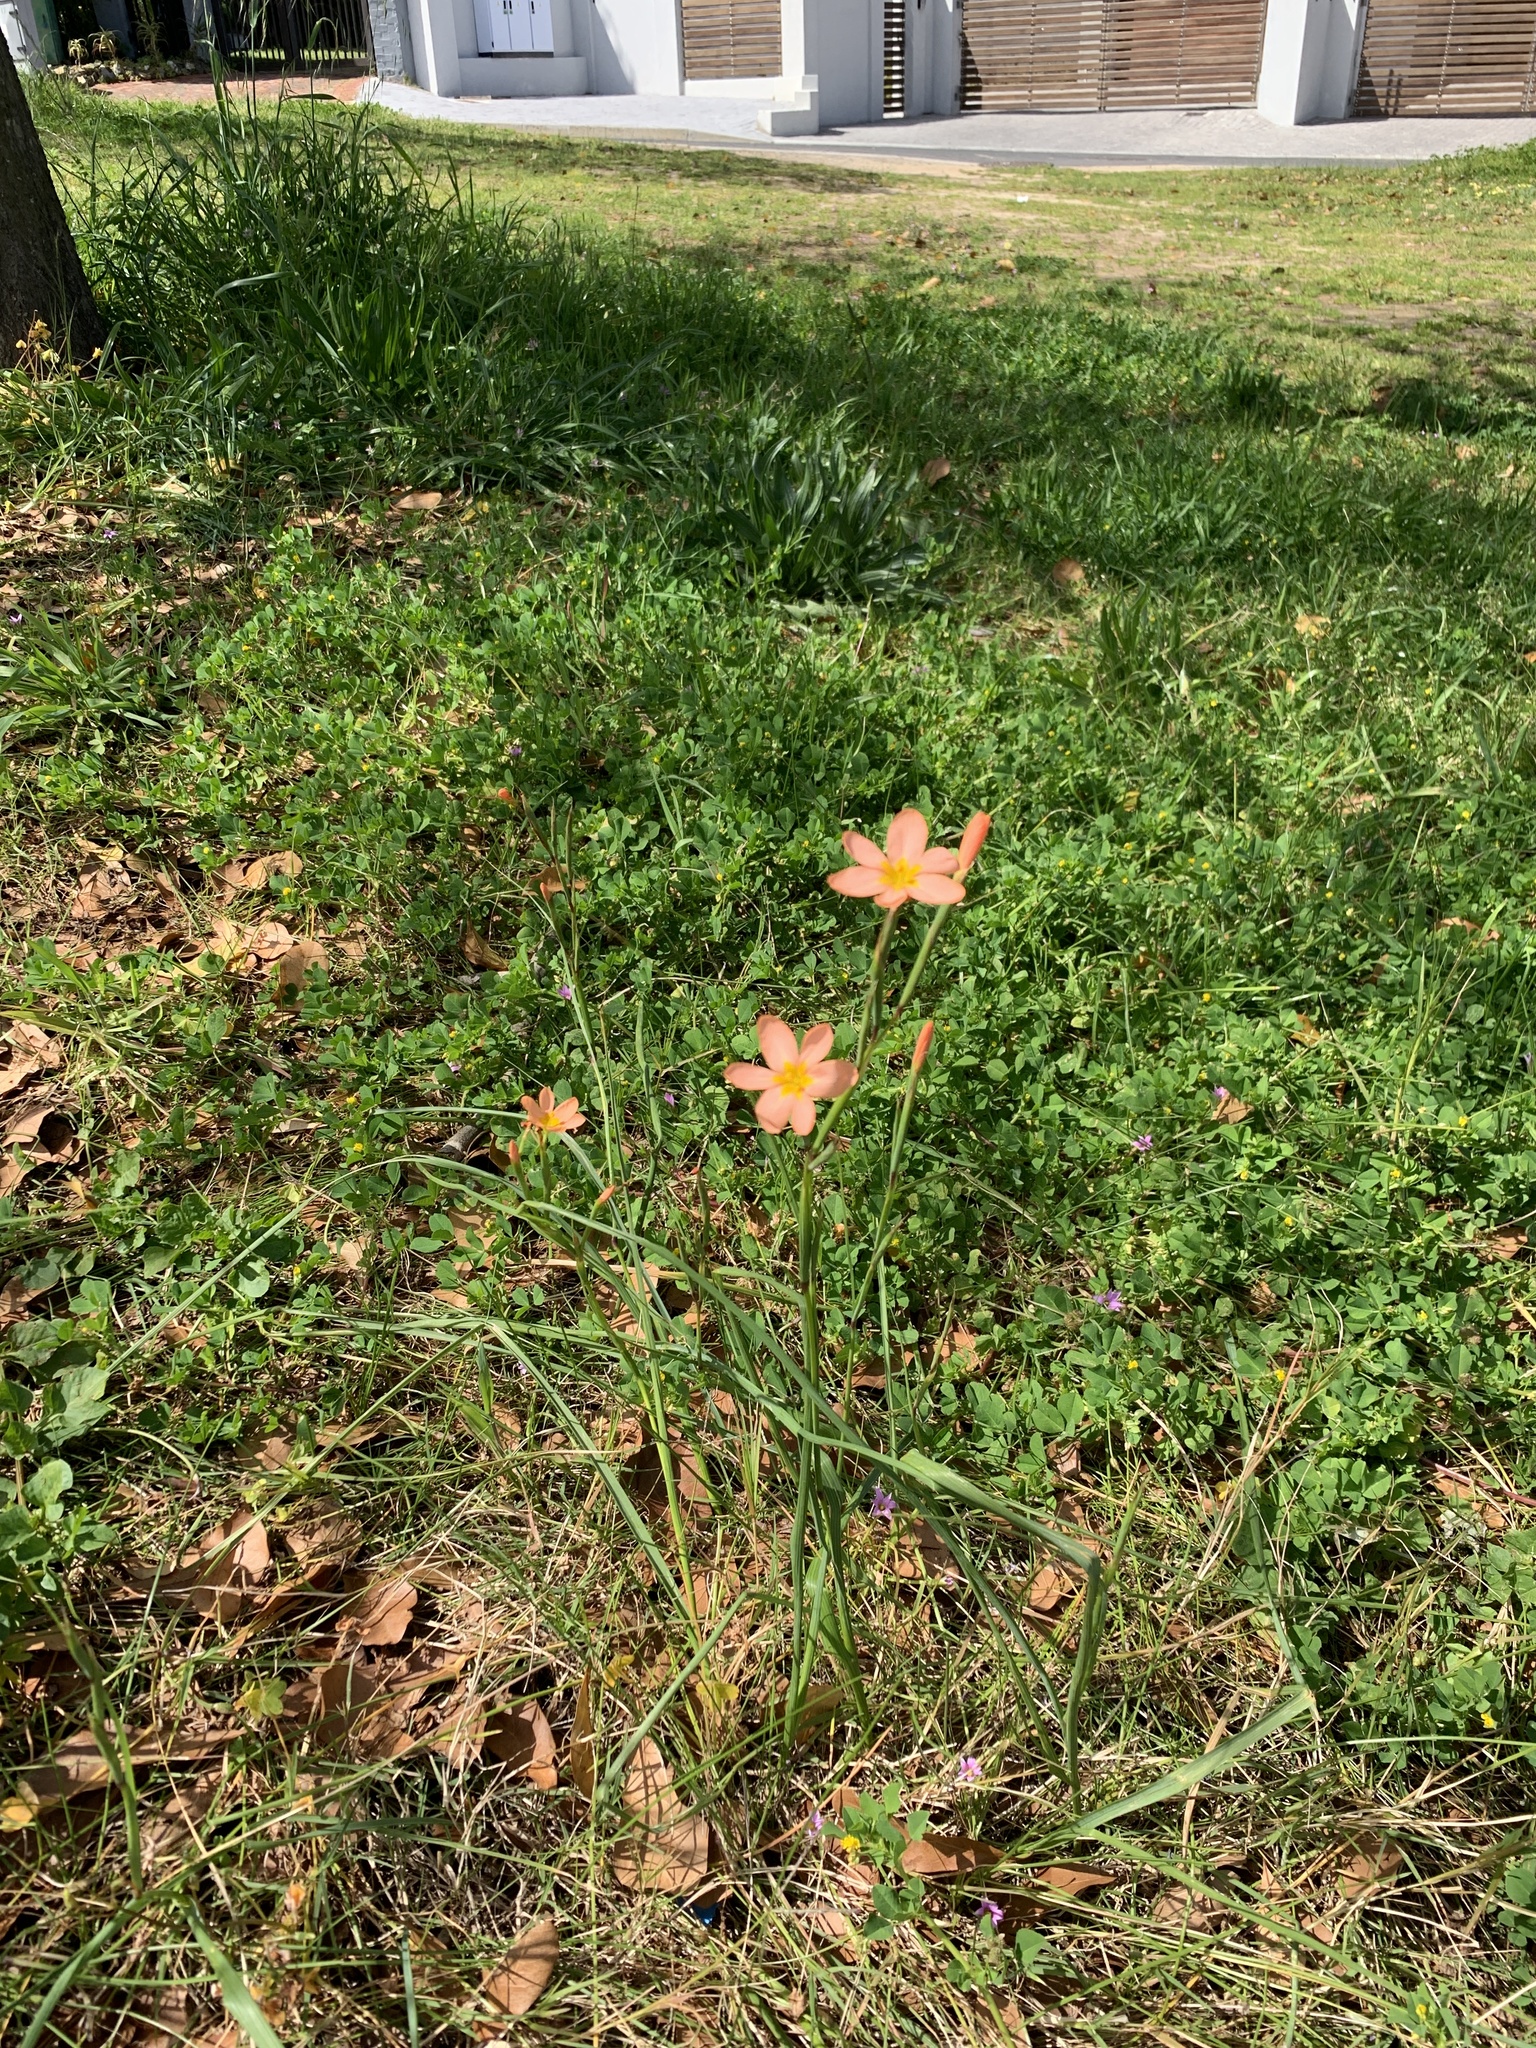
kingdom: Plantae
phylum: Tracheophyta
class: Liliopsida
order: Asparagales
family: Iridaceae
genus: Moraea
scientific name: Moraea miniata
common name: Two-leaf cape-tulip
